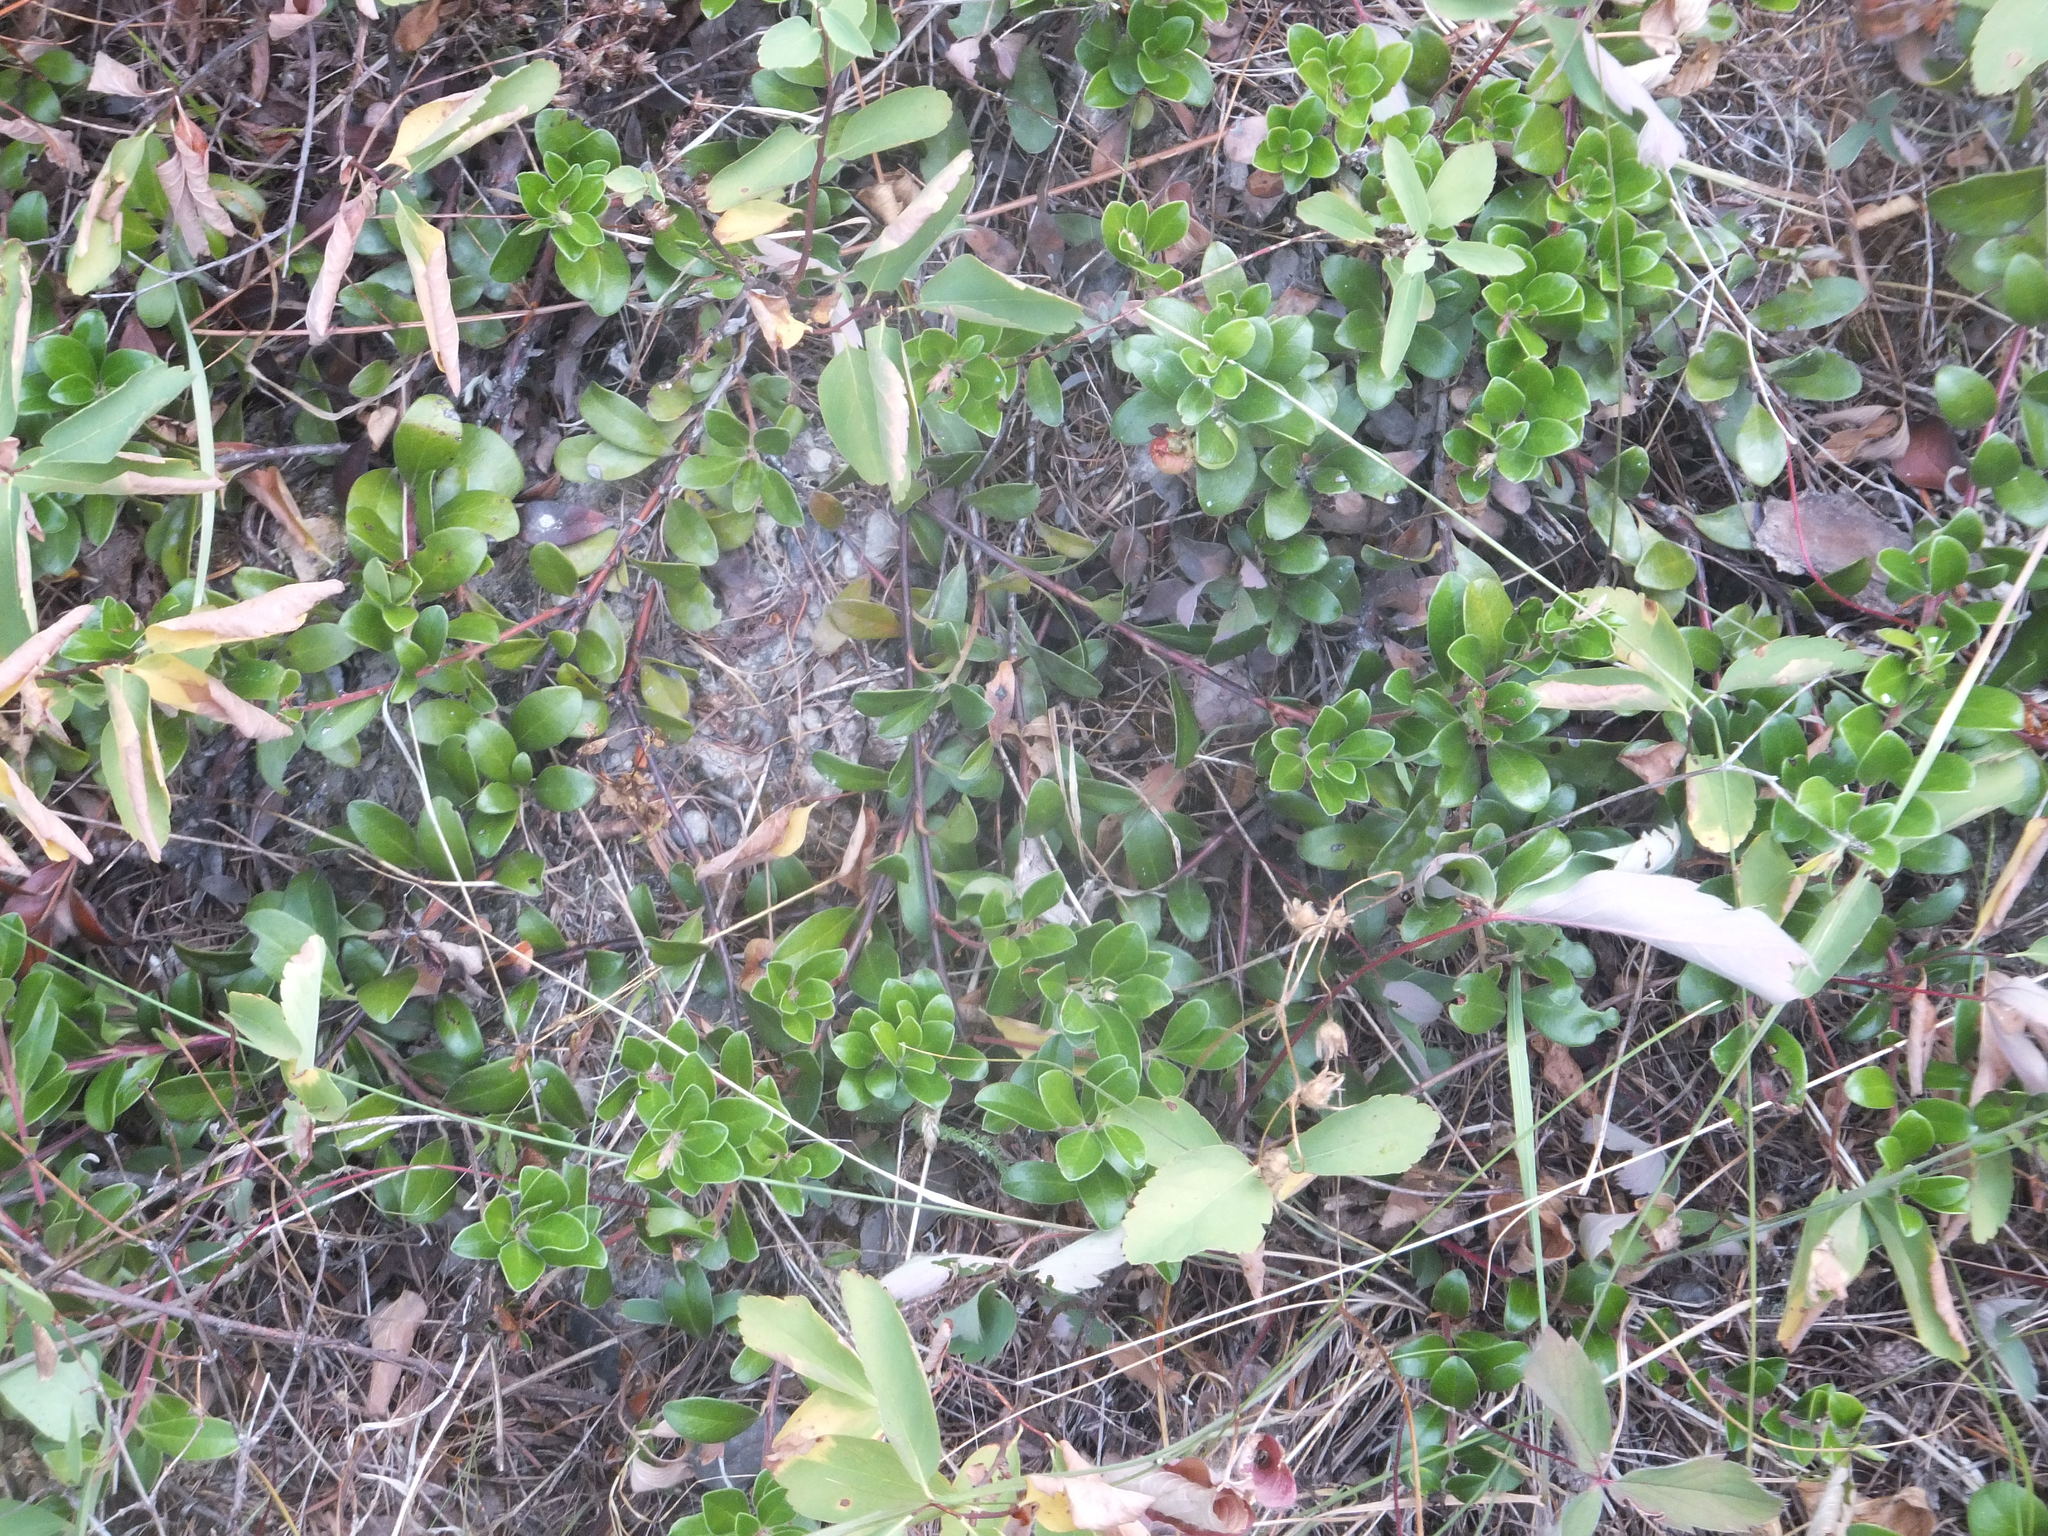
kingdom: Plantae
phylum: Tracheophyta
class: Magnoliopsida
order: Ericales
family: Ericaceae
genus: Arctostaphylos
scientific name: Arctostaphylos uva-ursi
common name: Bearberry
